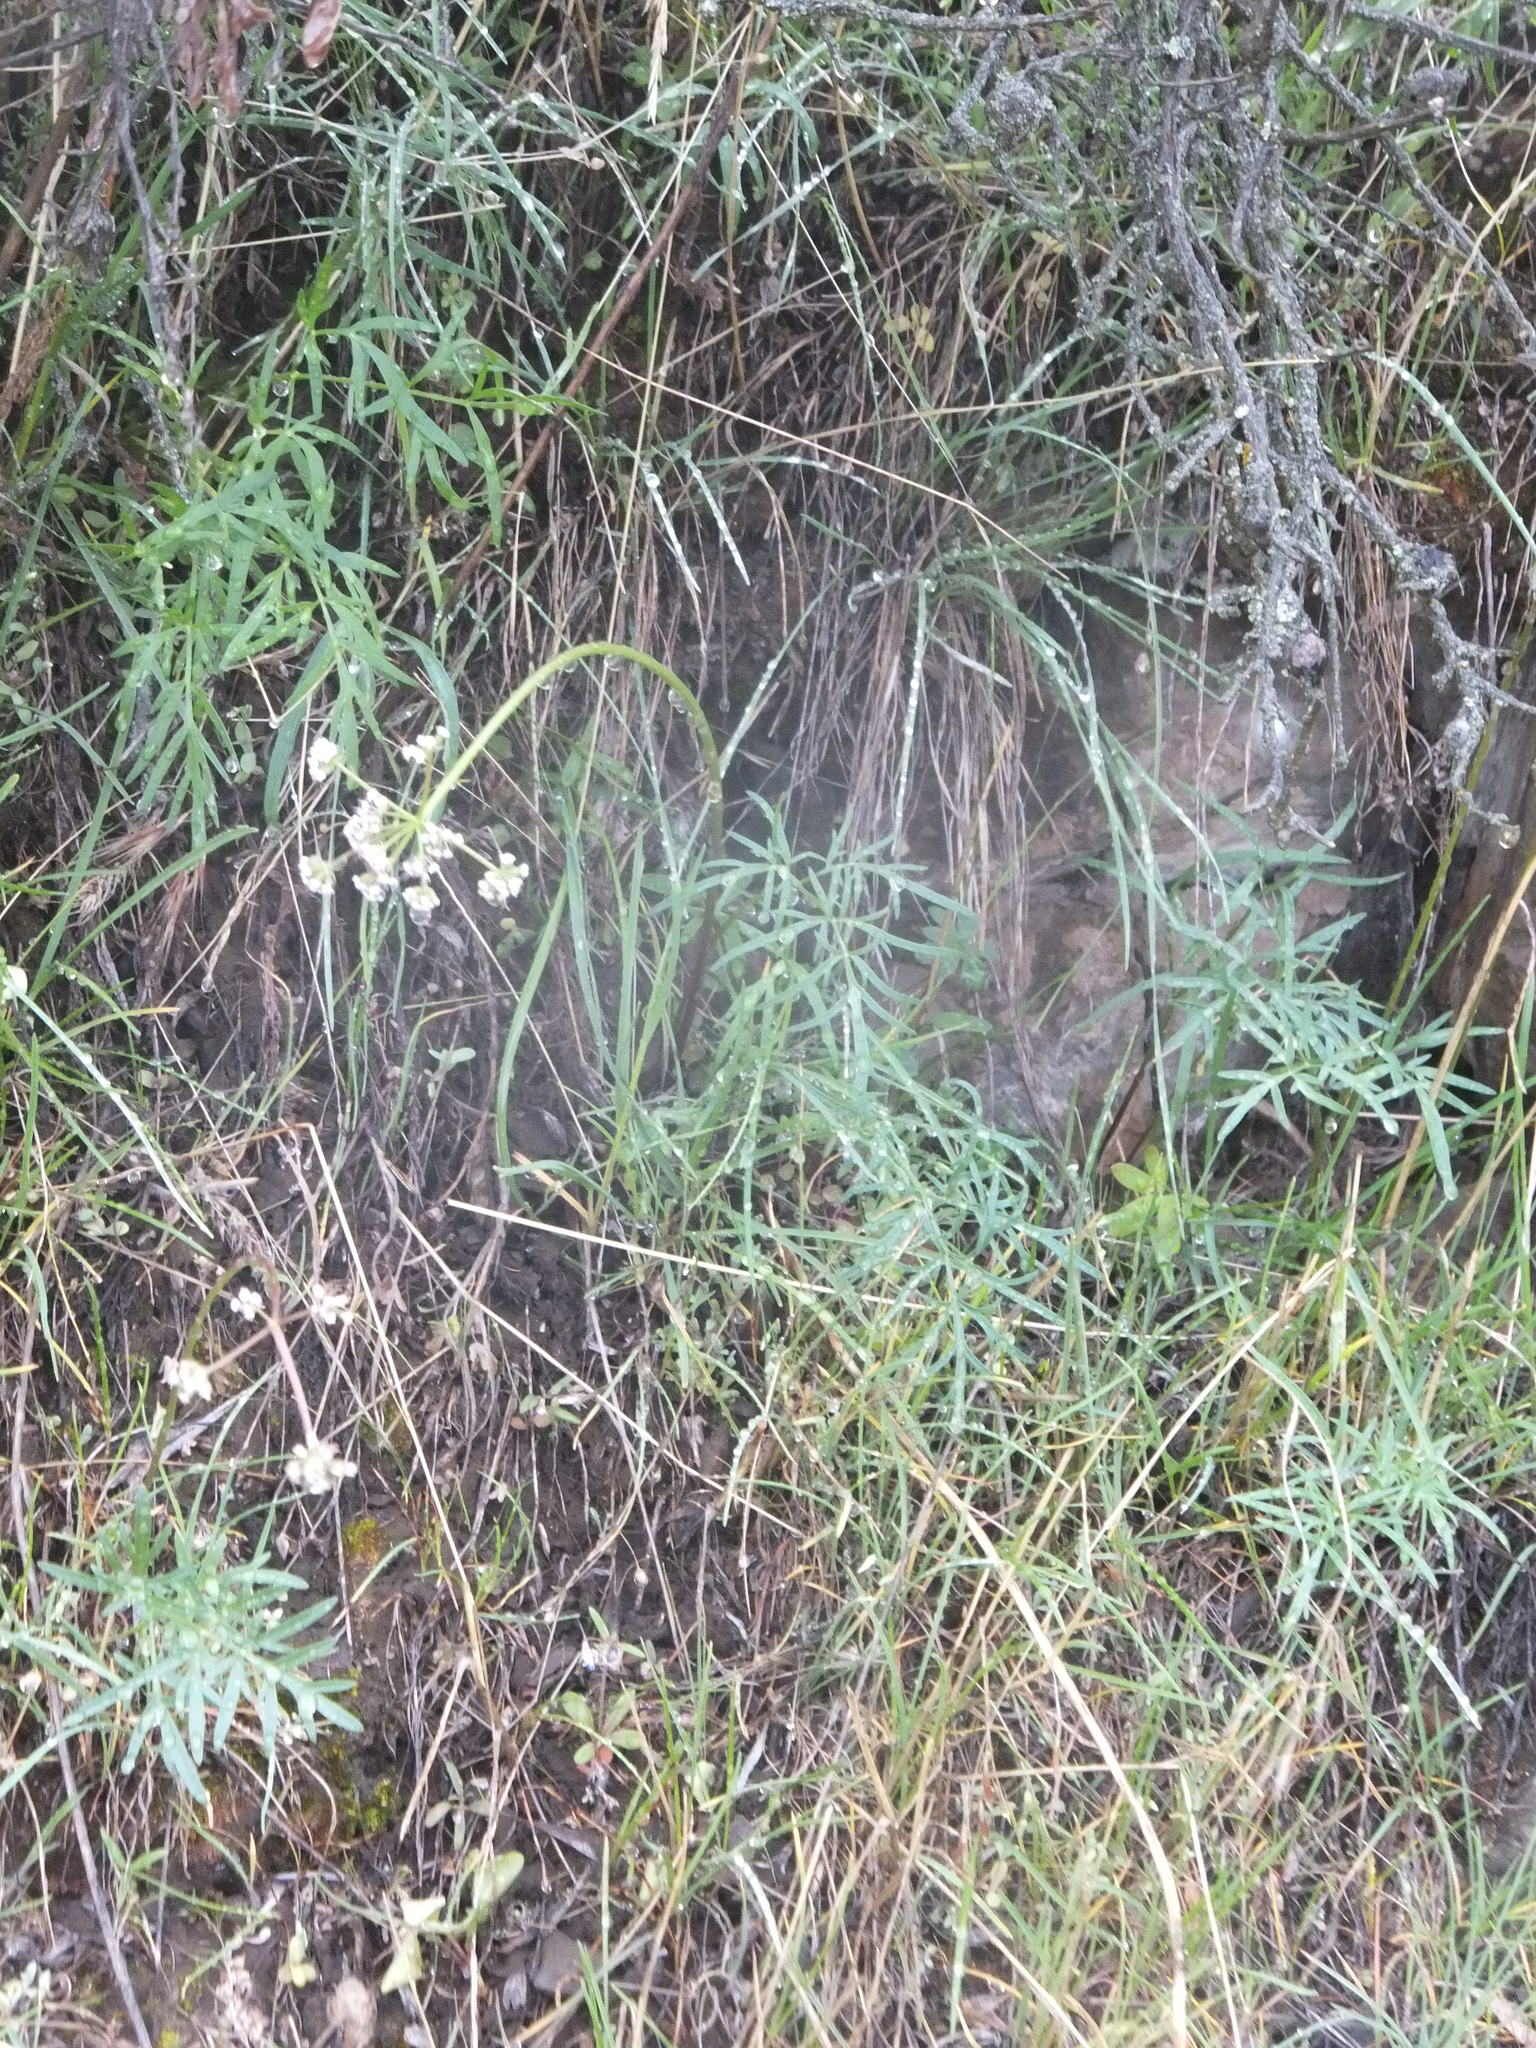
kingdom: Plantae
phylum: Tracheophyta
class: Magnoliopsida
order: Apiales
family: Apiaceae
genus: Lomatium
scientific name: Lomatium geyeri
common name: Geyer's biscuitroot
